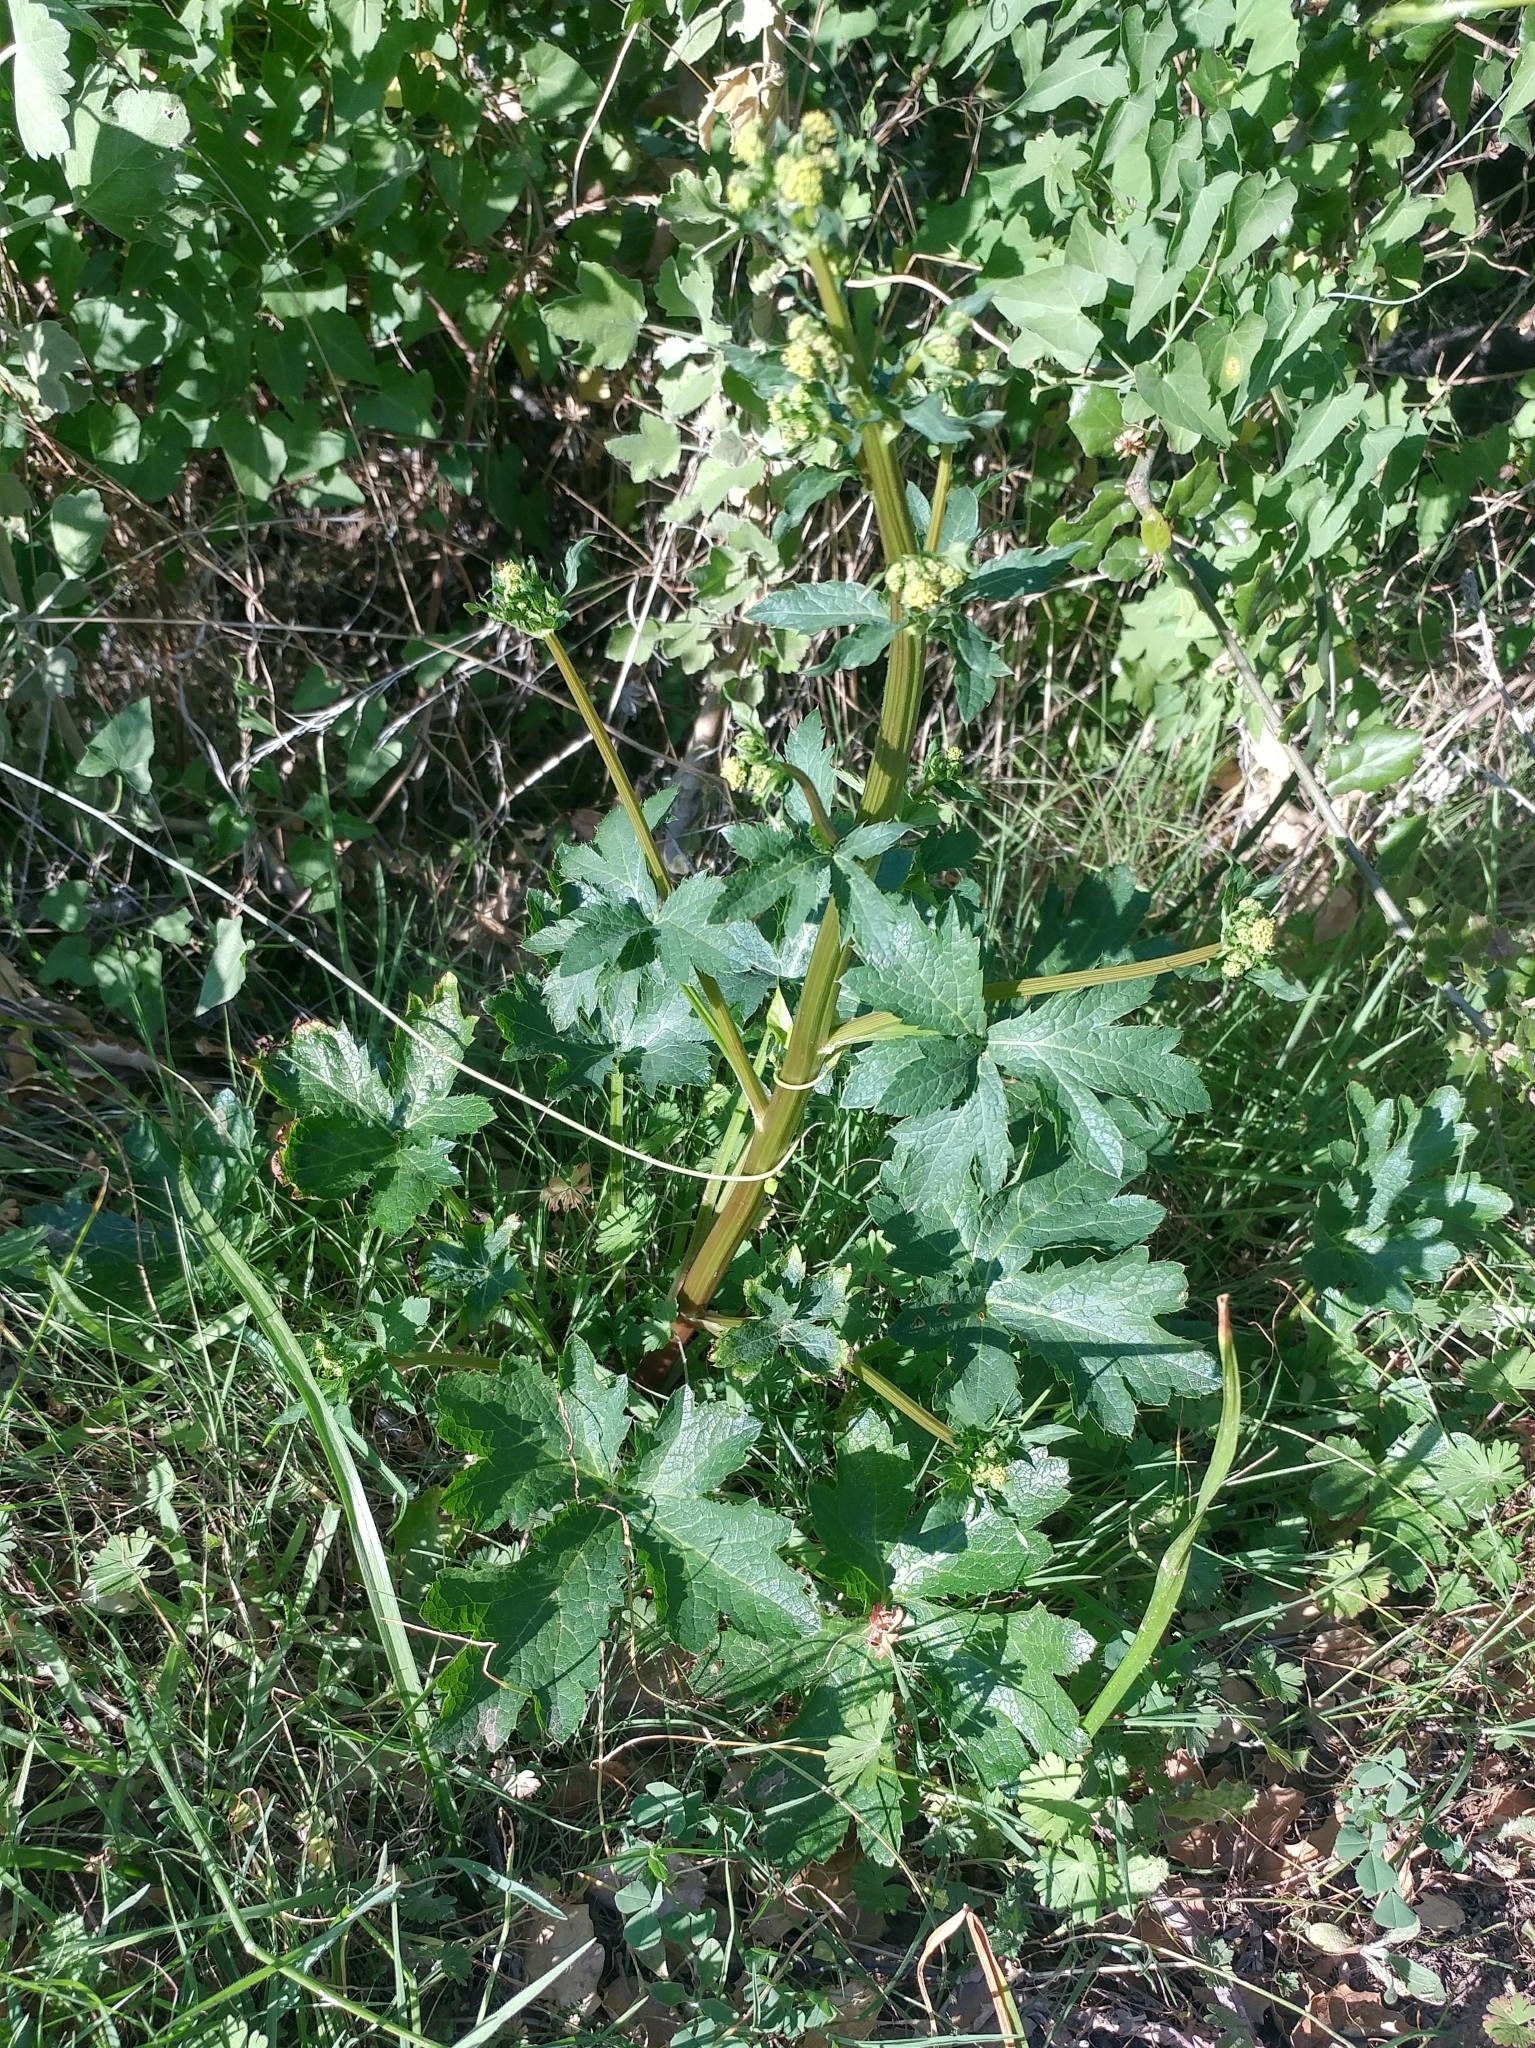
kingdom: Plantae
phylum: Tracheophyta
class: Magnoliopsida
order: Apiales
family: Apiaceae
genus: Sanicula
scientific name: Sanicula crassicaulis
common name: Western snakeroot
